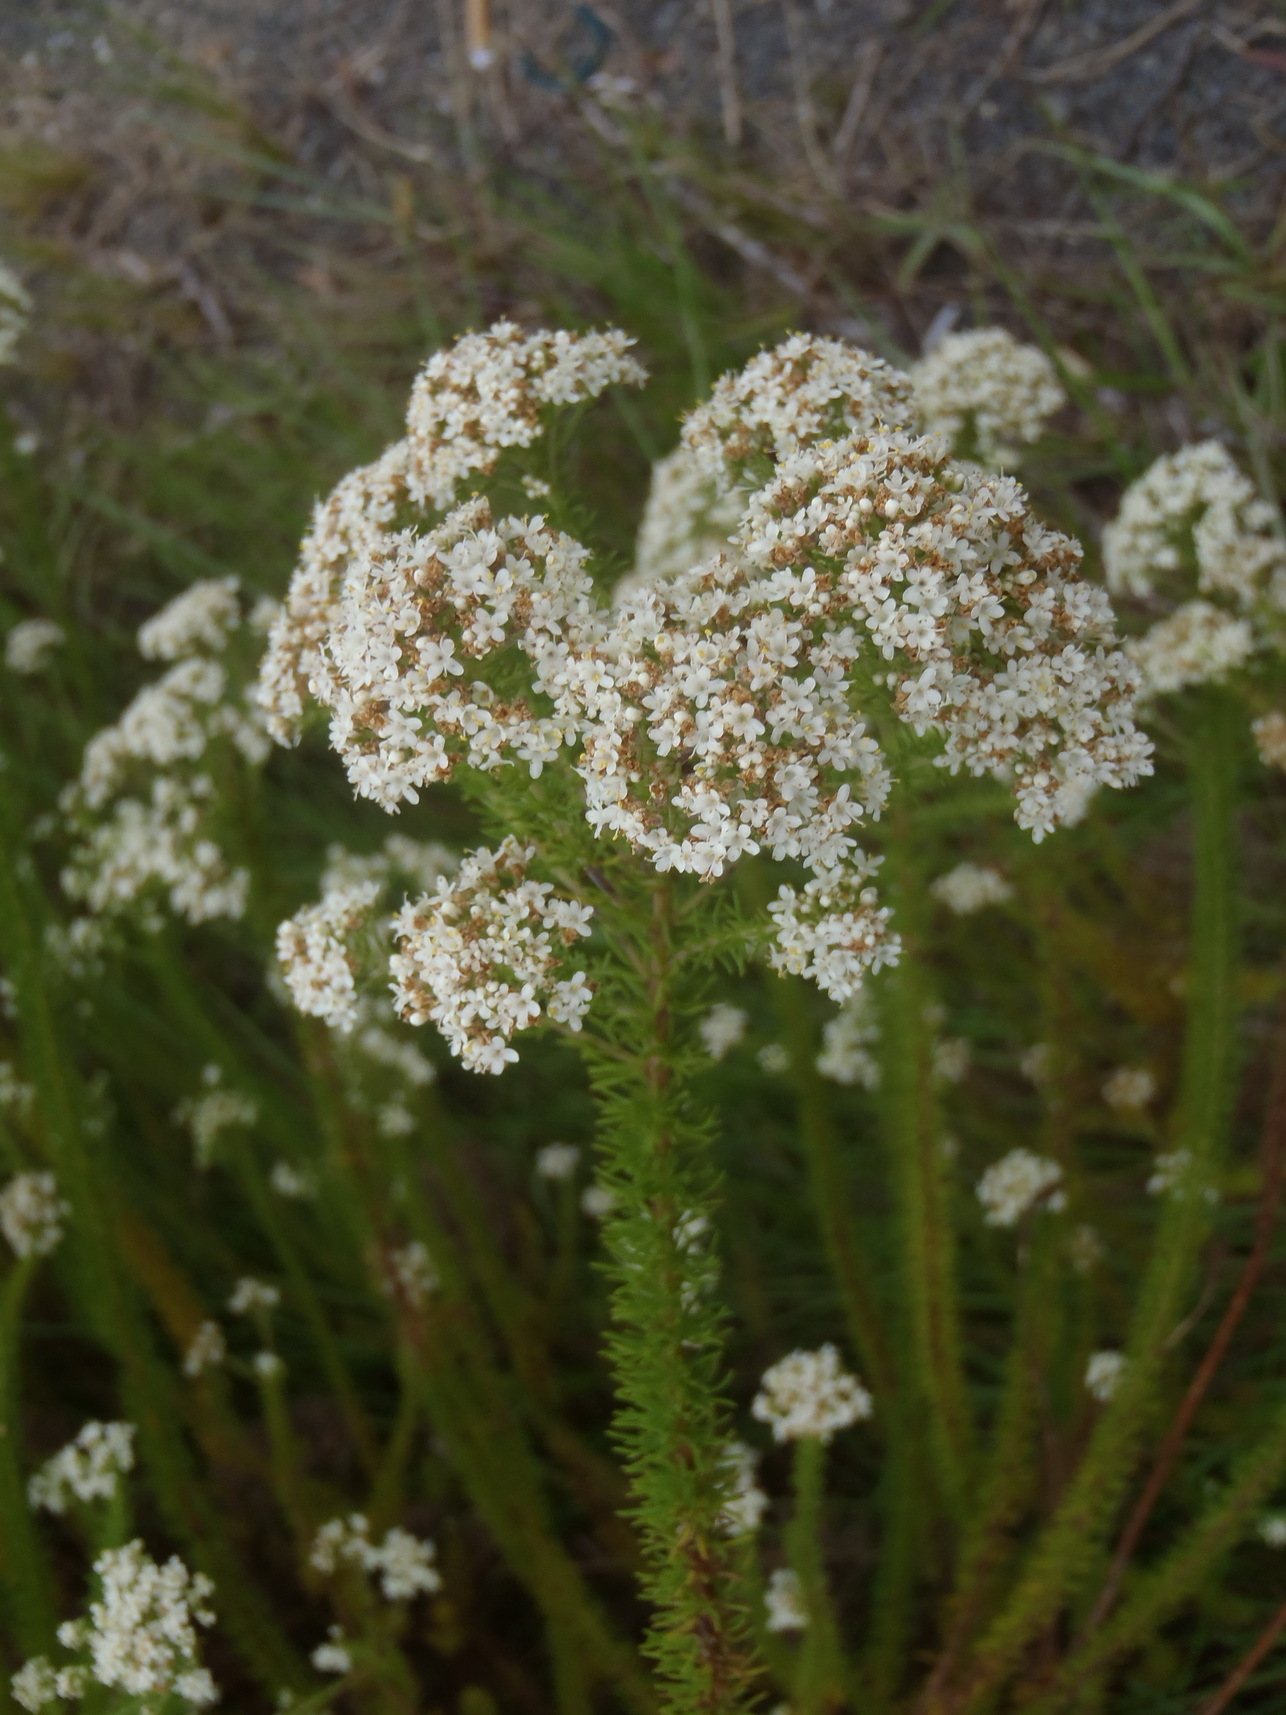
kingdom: Plantae
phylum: Tracheophyta
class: Magnoliopsida
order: Lamiales
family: Scrophulariaceae
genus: Selago
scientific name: Selago corymbosa
